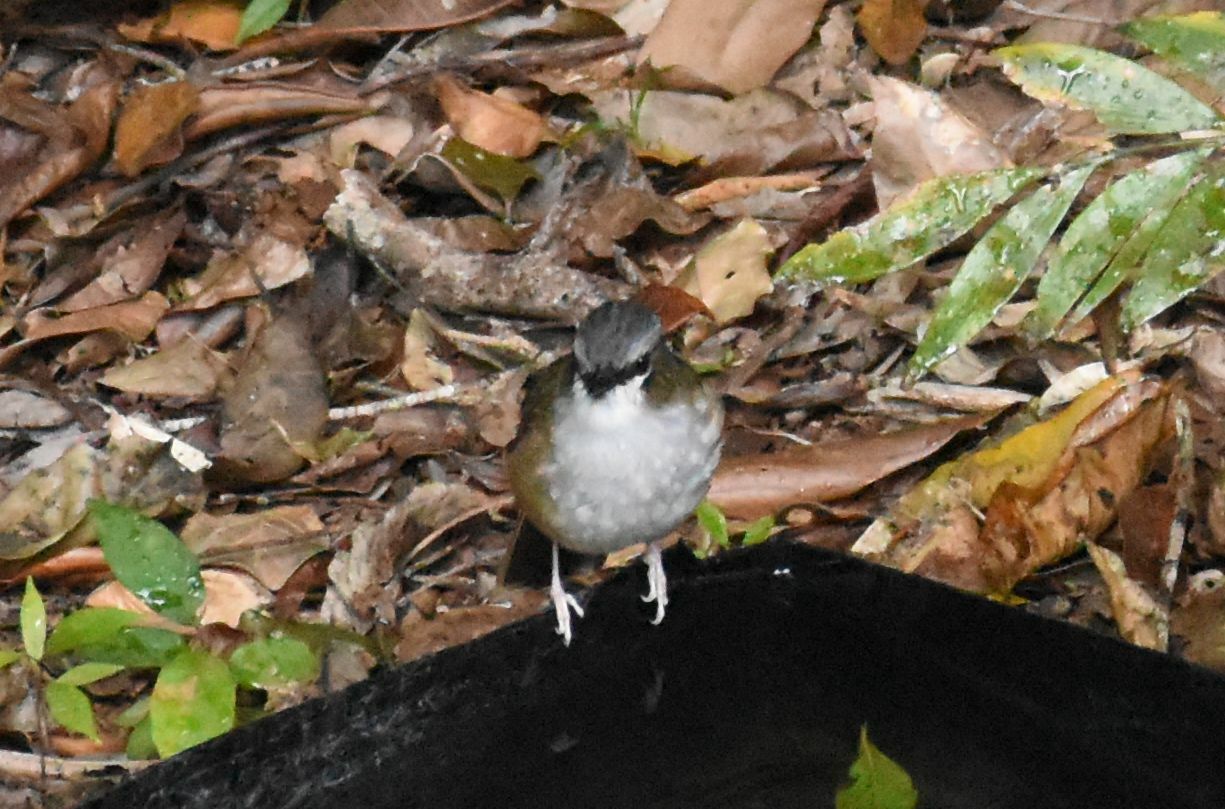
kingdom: Animalia
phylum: Chordata
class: Aves
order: Passeriformes
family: Petroicidae
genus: Heteromyias
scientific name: Heteromyias cinereifrons
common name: Grey-headed robin
